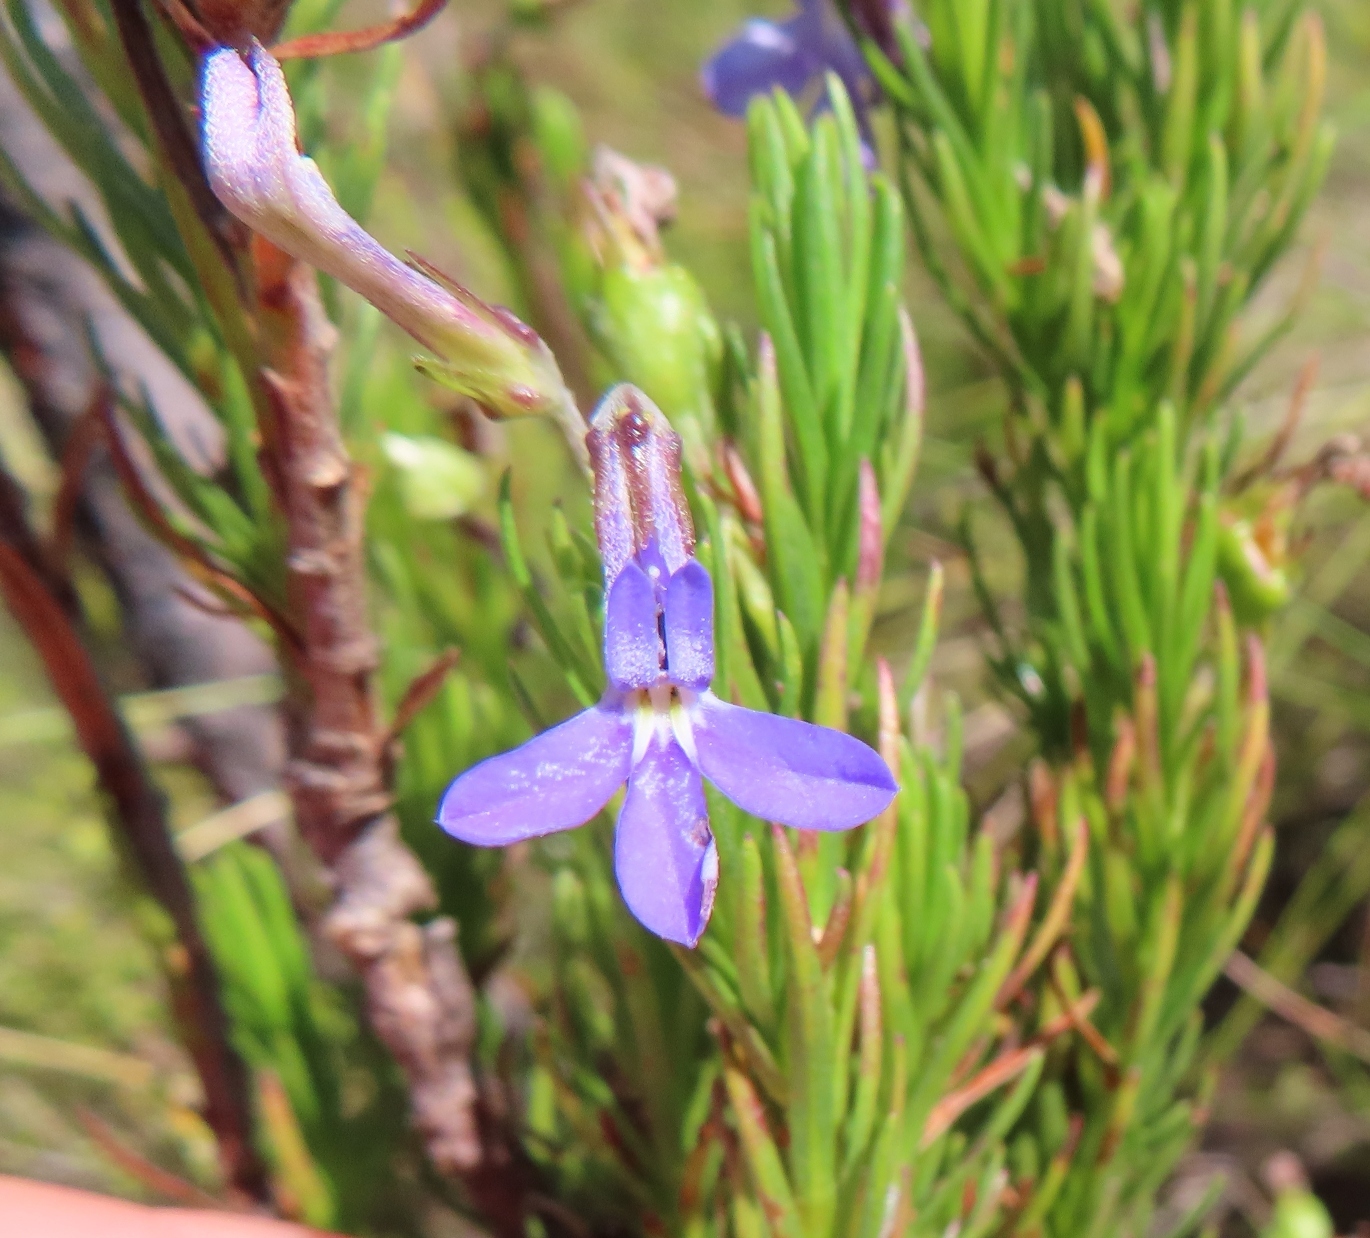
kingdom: Plantae
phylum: Tracheophyta
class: Magnoliopsida
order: Asterales
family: Campanulaceae
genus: Lobelia
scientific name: Lobelia pinifolia
